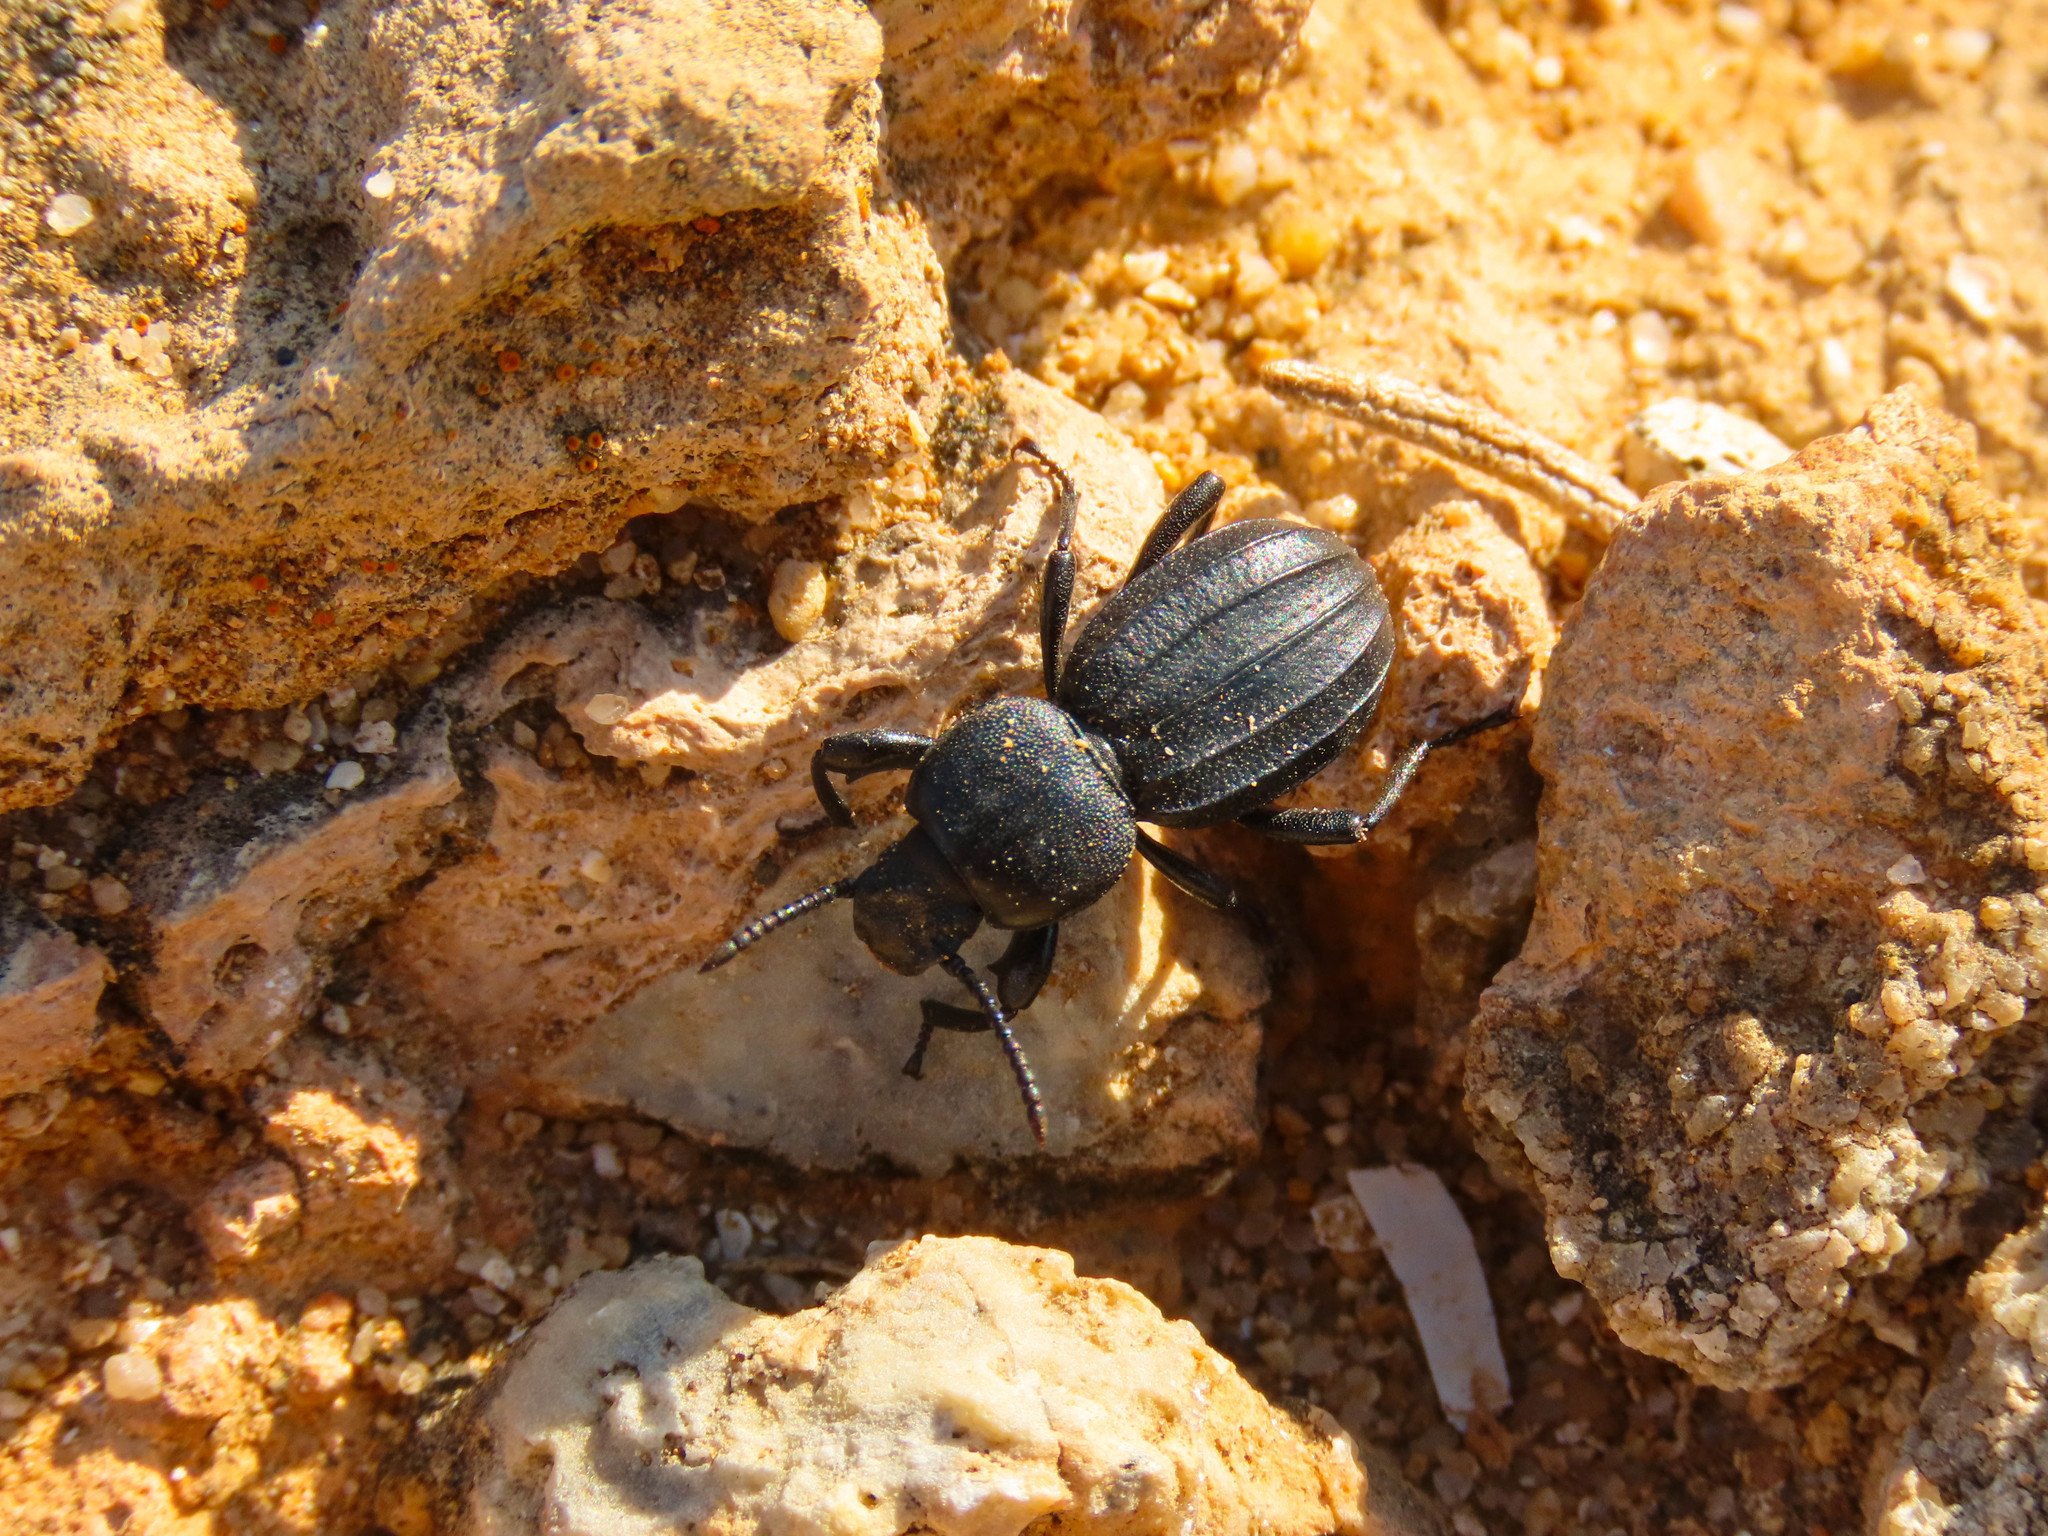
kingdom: Animalia
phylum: Arthropoda
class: Insecta
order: Coleoptera
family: Tenebrionidae
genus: Scaurus
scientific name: Scaurus striatus
